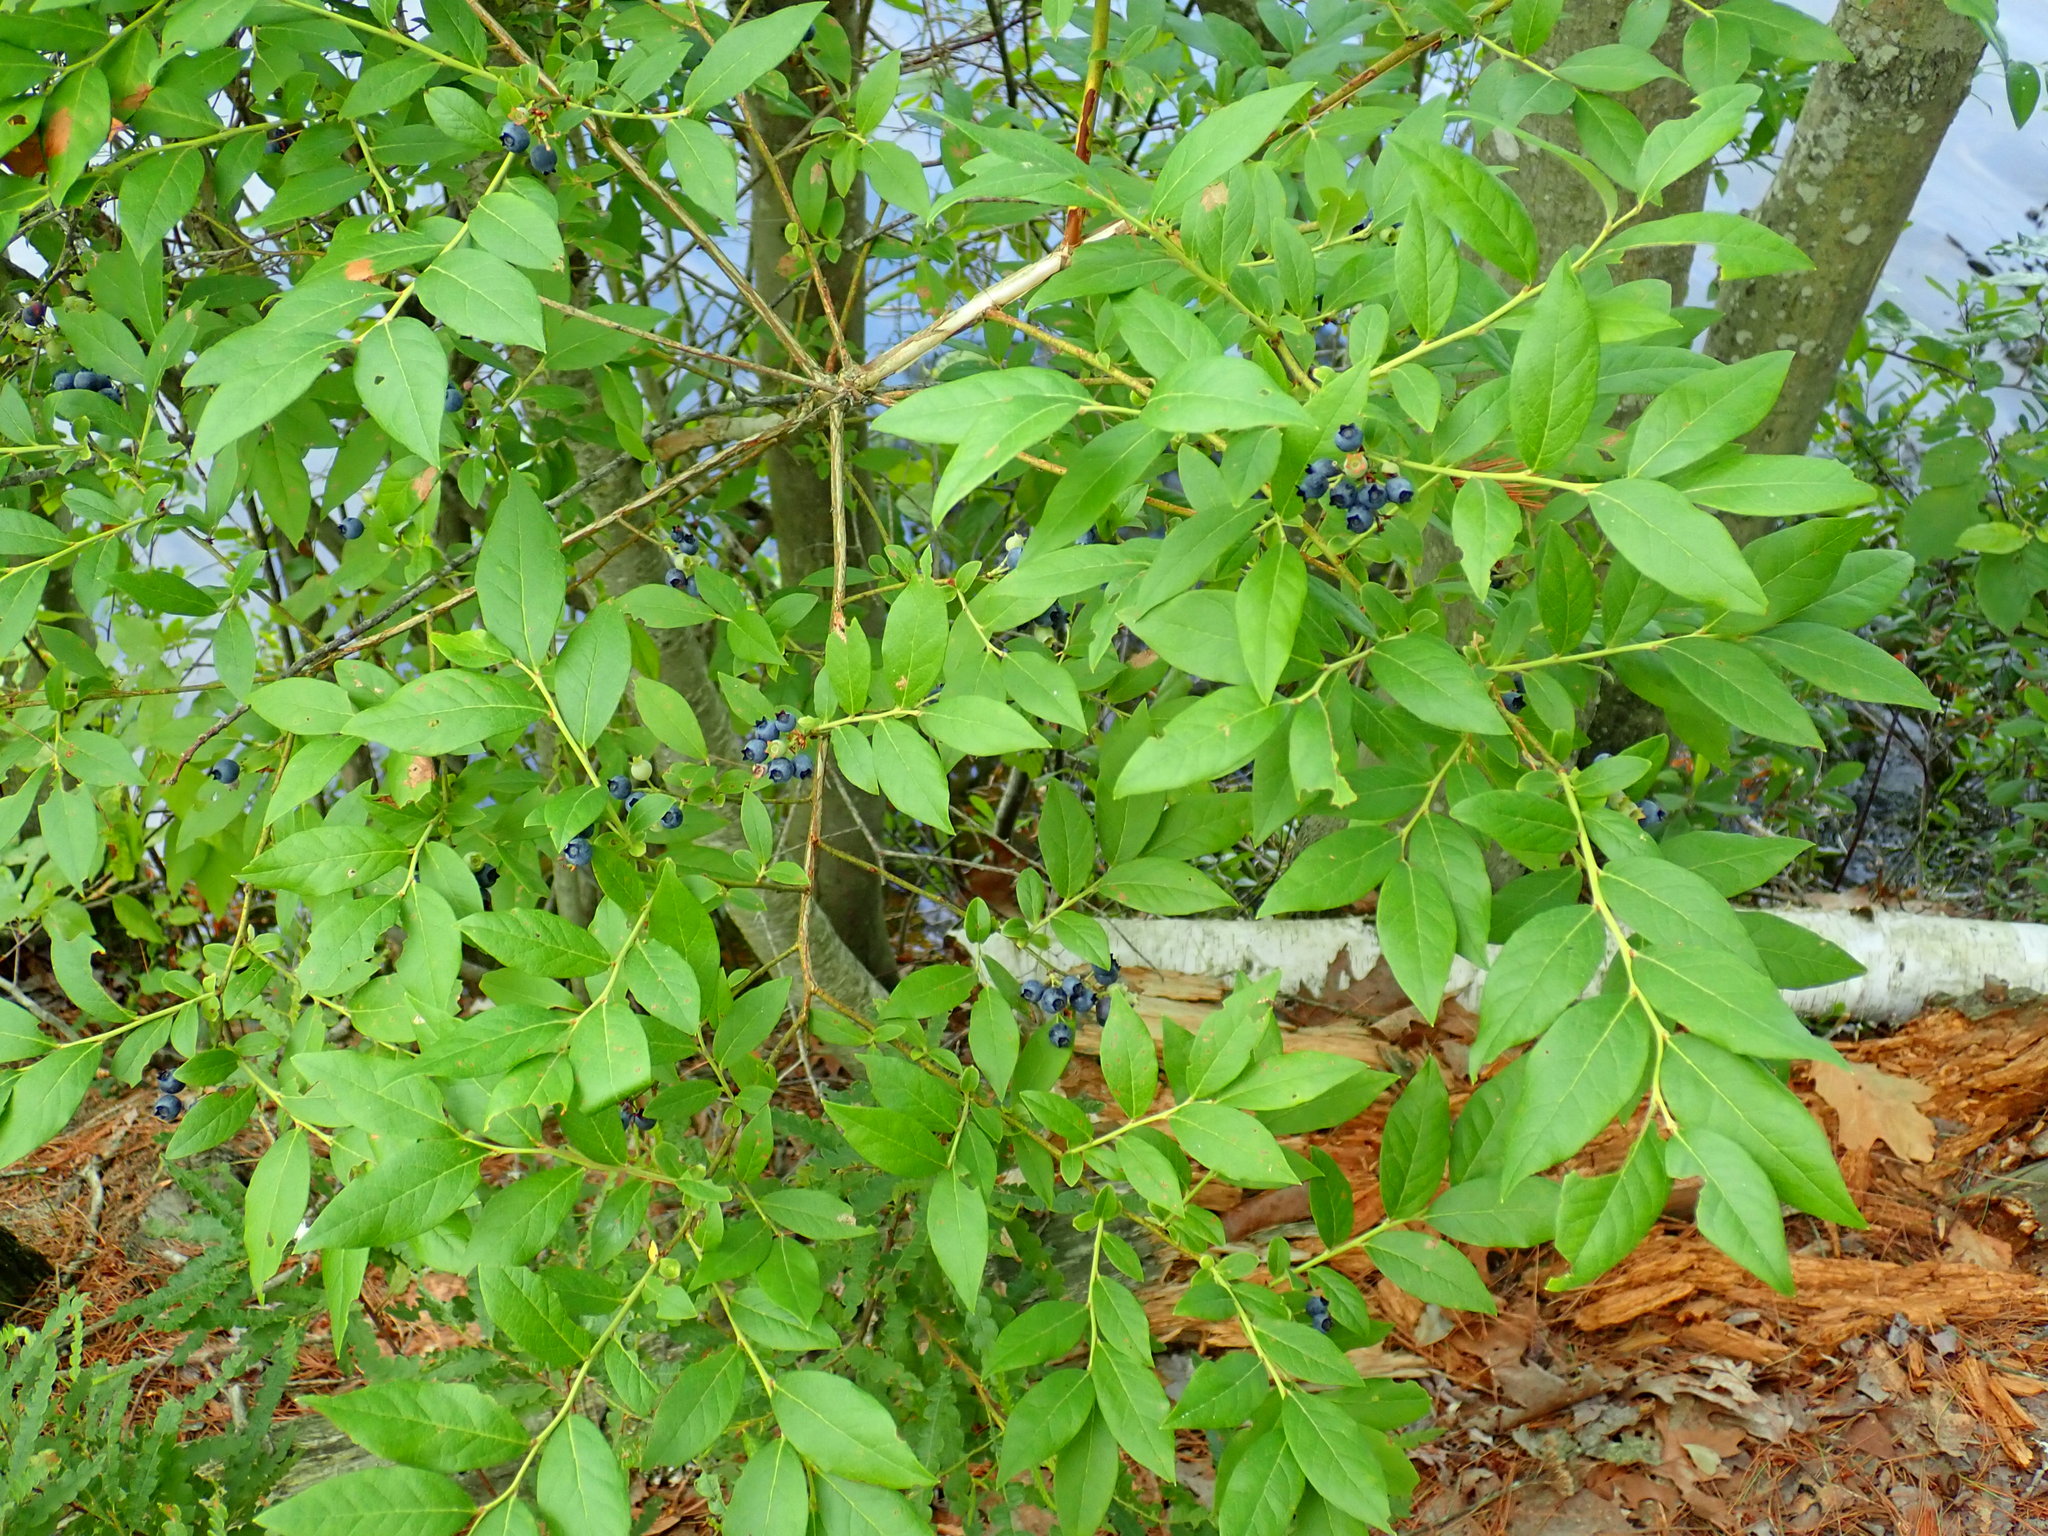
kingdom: Plantae
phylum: Tracheophyta
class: Magnoliopsida
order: Ericales
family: Ericaceae
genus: Vaccinium
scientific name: Vaccinium corymbosum
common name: Blueberry
